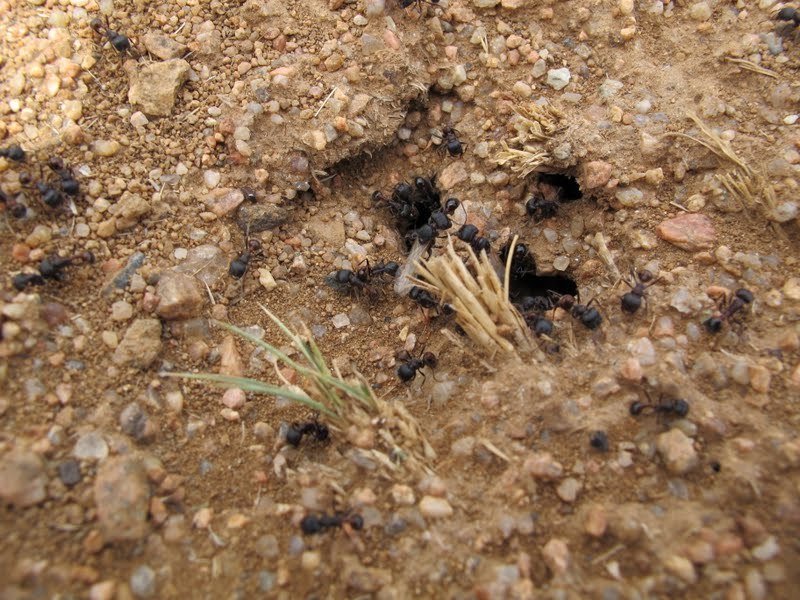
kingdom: Animalia
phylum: Arthropoda
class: Insecta
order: Hymenoptera
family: Formicidae
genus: Pogonomyrmex
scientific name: Pogonomyrmex rugosus
